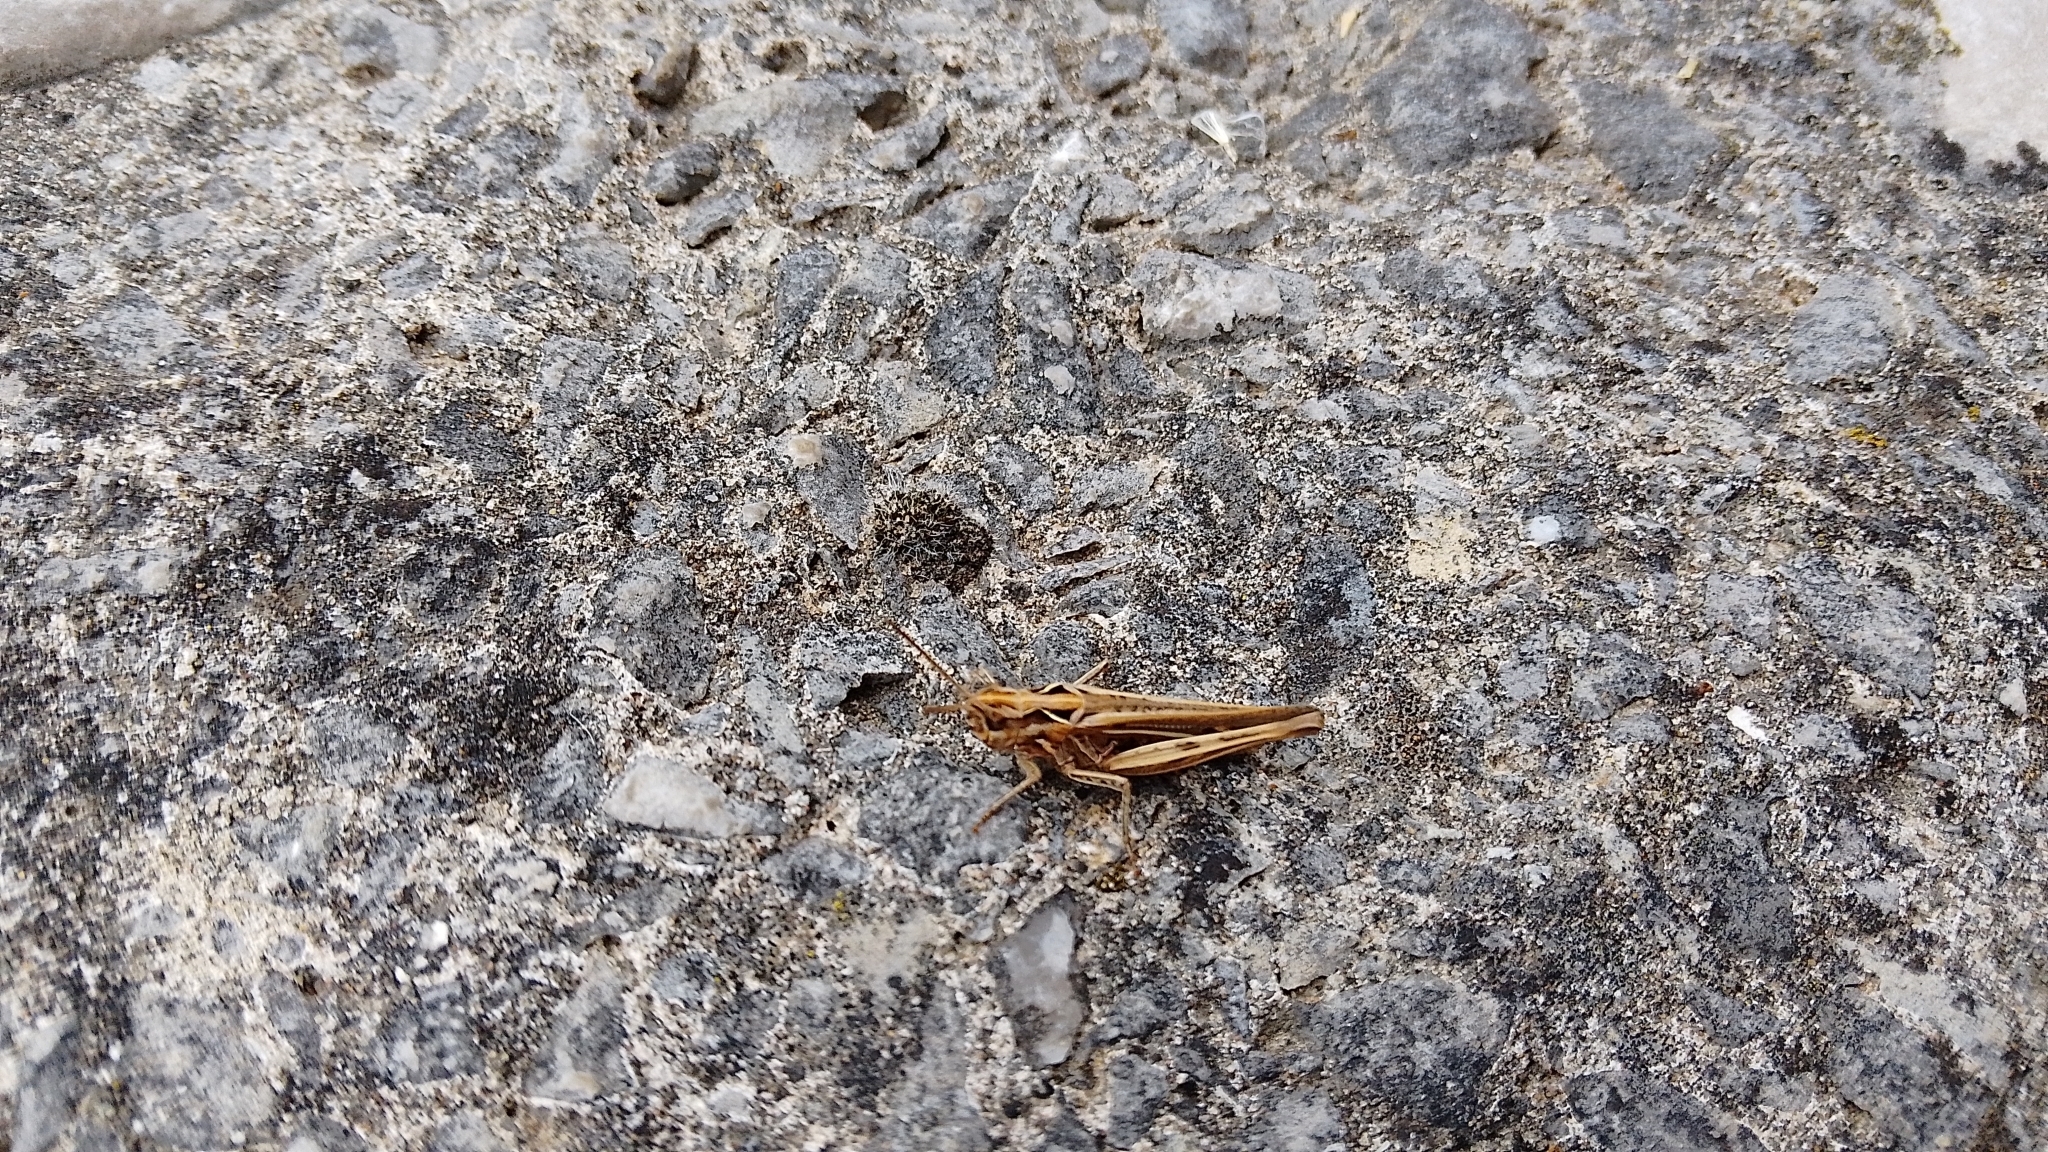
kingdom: Animalia
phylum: Arthropoda
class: Insecta
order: Orthoptera
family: Acrididae
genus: Chorthippus
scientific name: Chorthippus brunneus
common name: Field grasshopper
